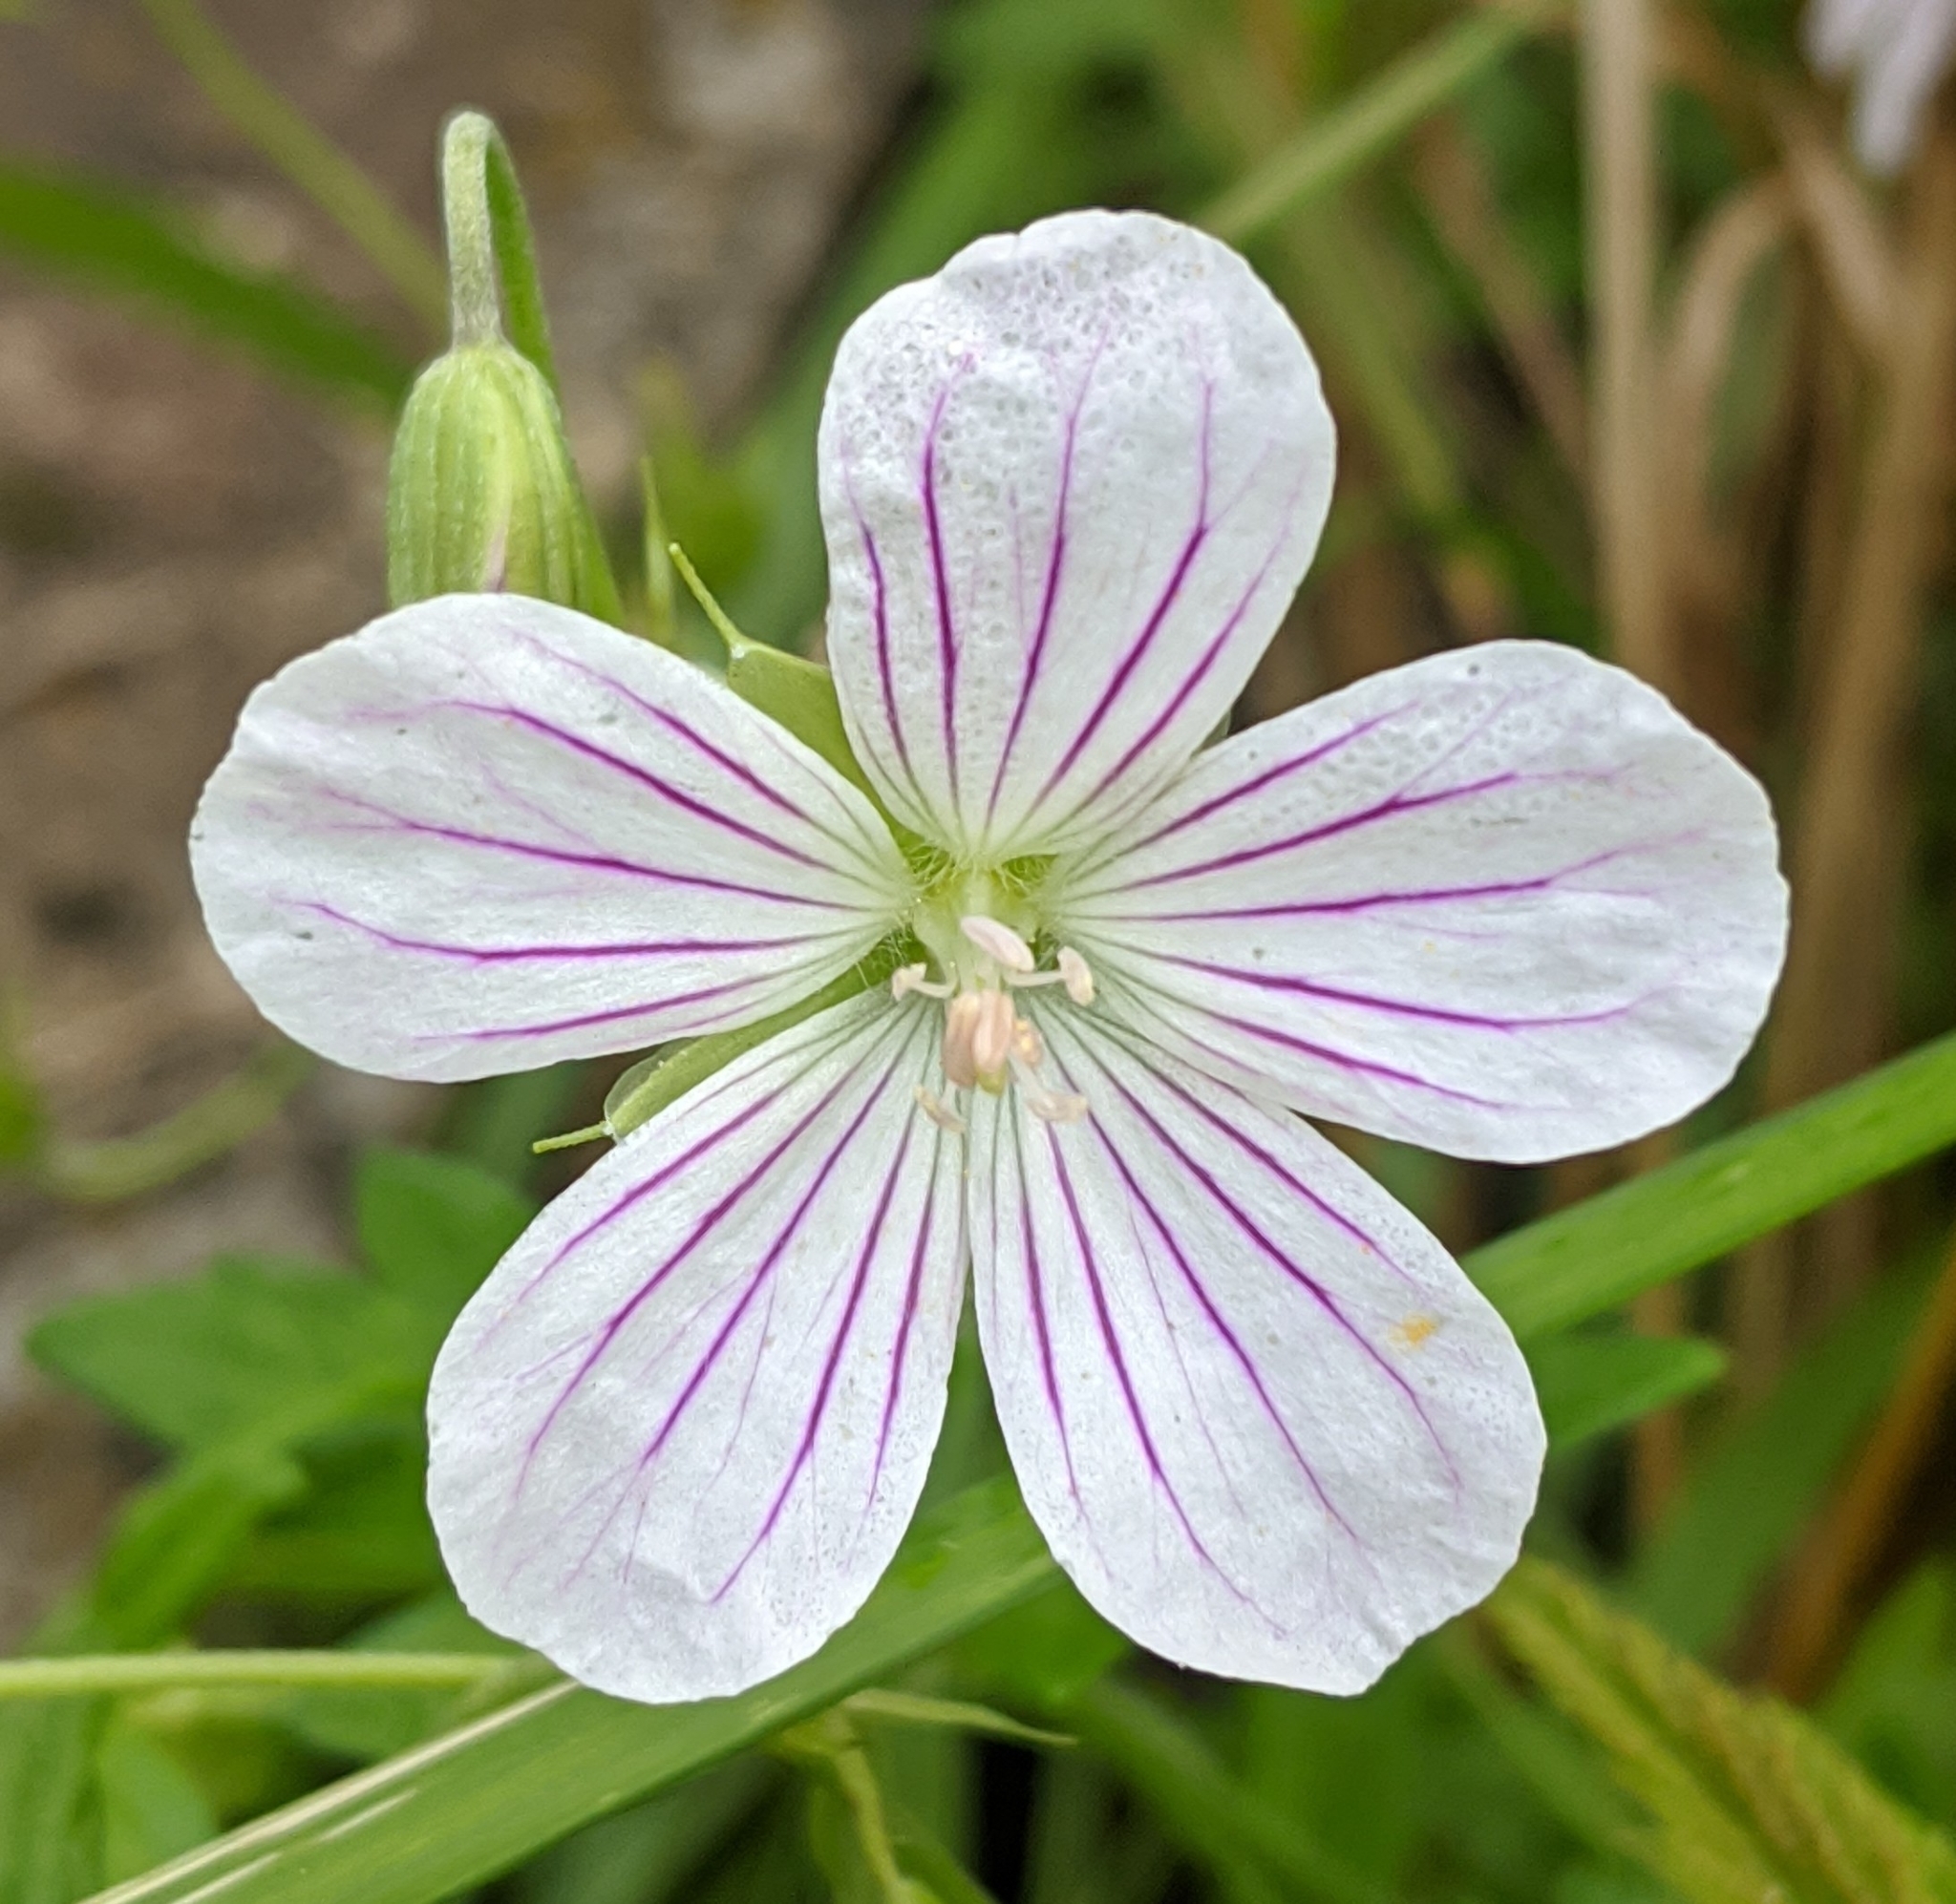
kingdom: Plantae
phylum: Tracheophyta
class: Magnoliopsida
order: Geraniales
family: Geraniaceae
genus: Geranium
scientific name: Geranium palustre
